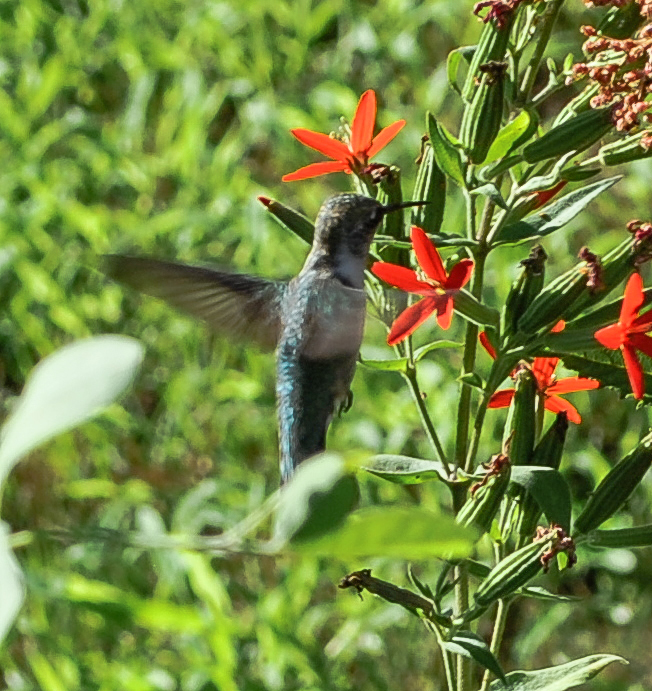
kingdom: Animalia
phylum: Chordata
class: Aves
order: Apodiformes
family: Trochilidae
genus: Archilochus
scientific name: Archilochus colubris
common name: Ruby-throated hummingbird
